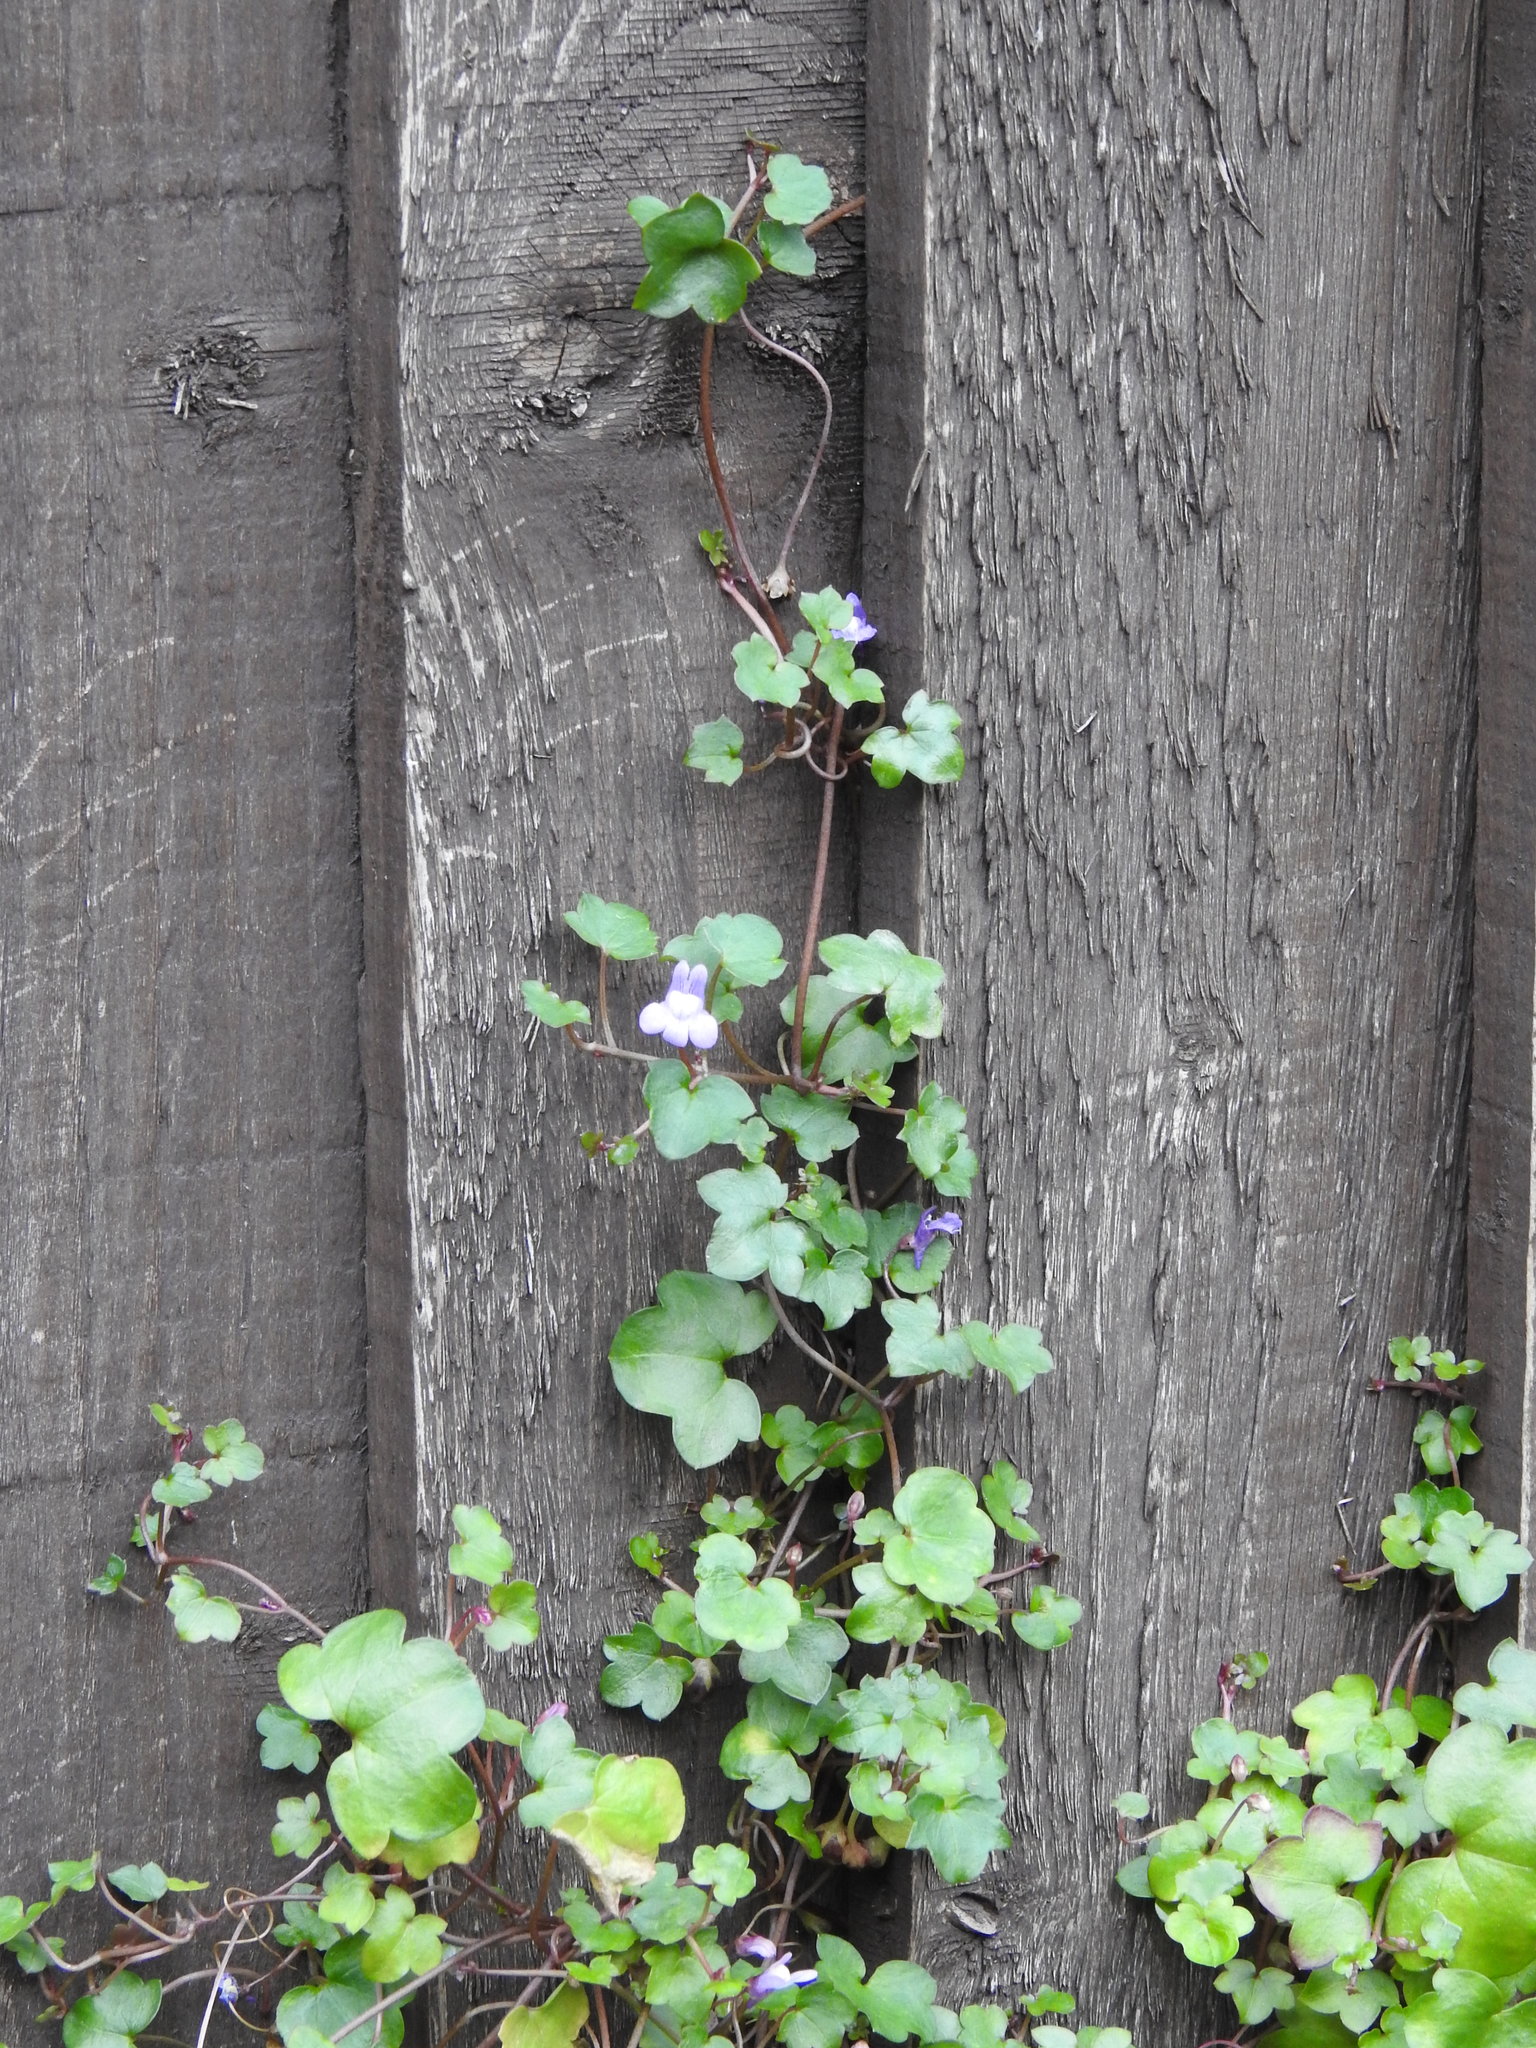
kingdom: Plantae
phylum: Tracheophyta
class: Magnoliopsida
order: Lamiales
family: Plantaginaceae
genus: Cymbalaria
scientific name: Cymbalaria muralis
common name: Ivy-leaved toadflax
